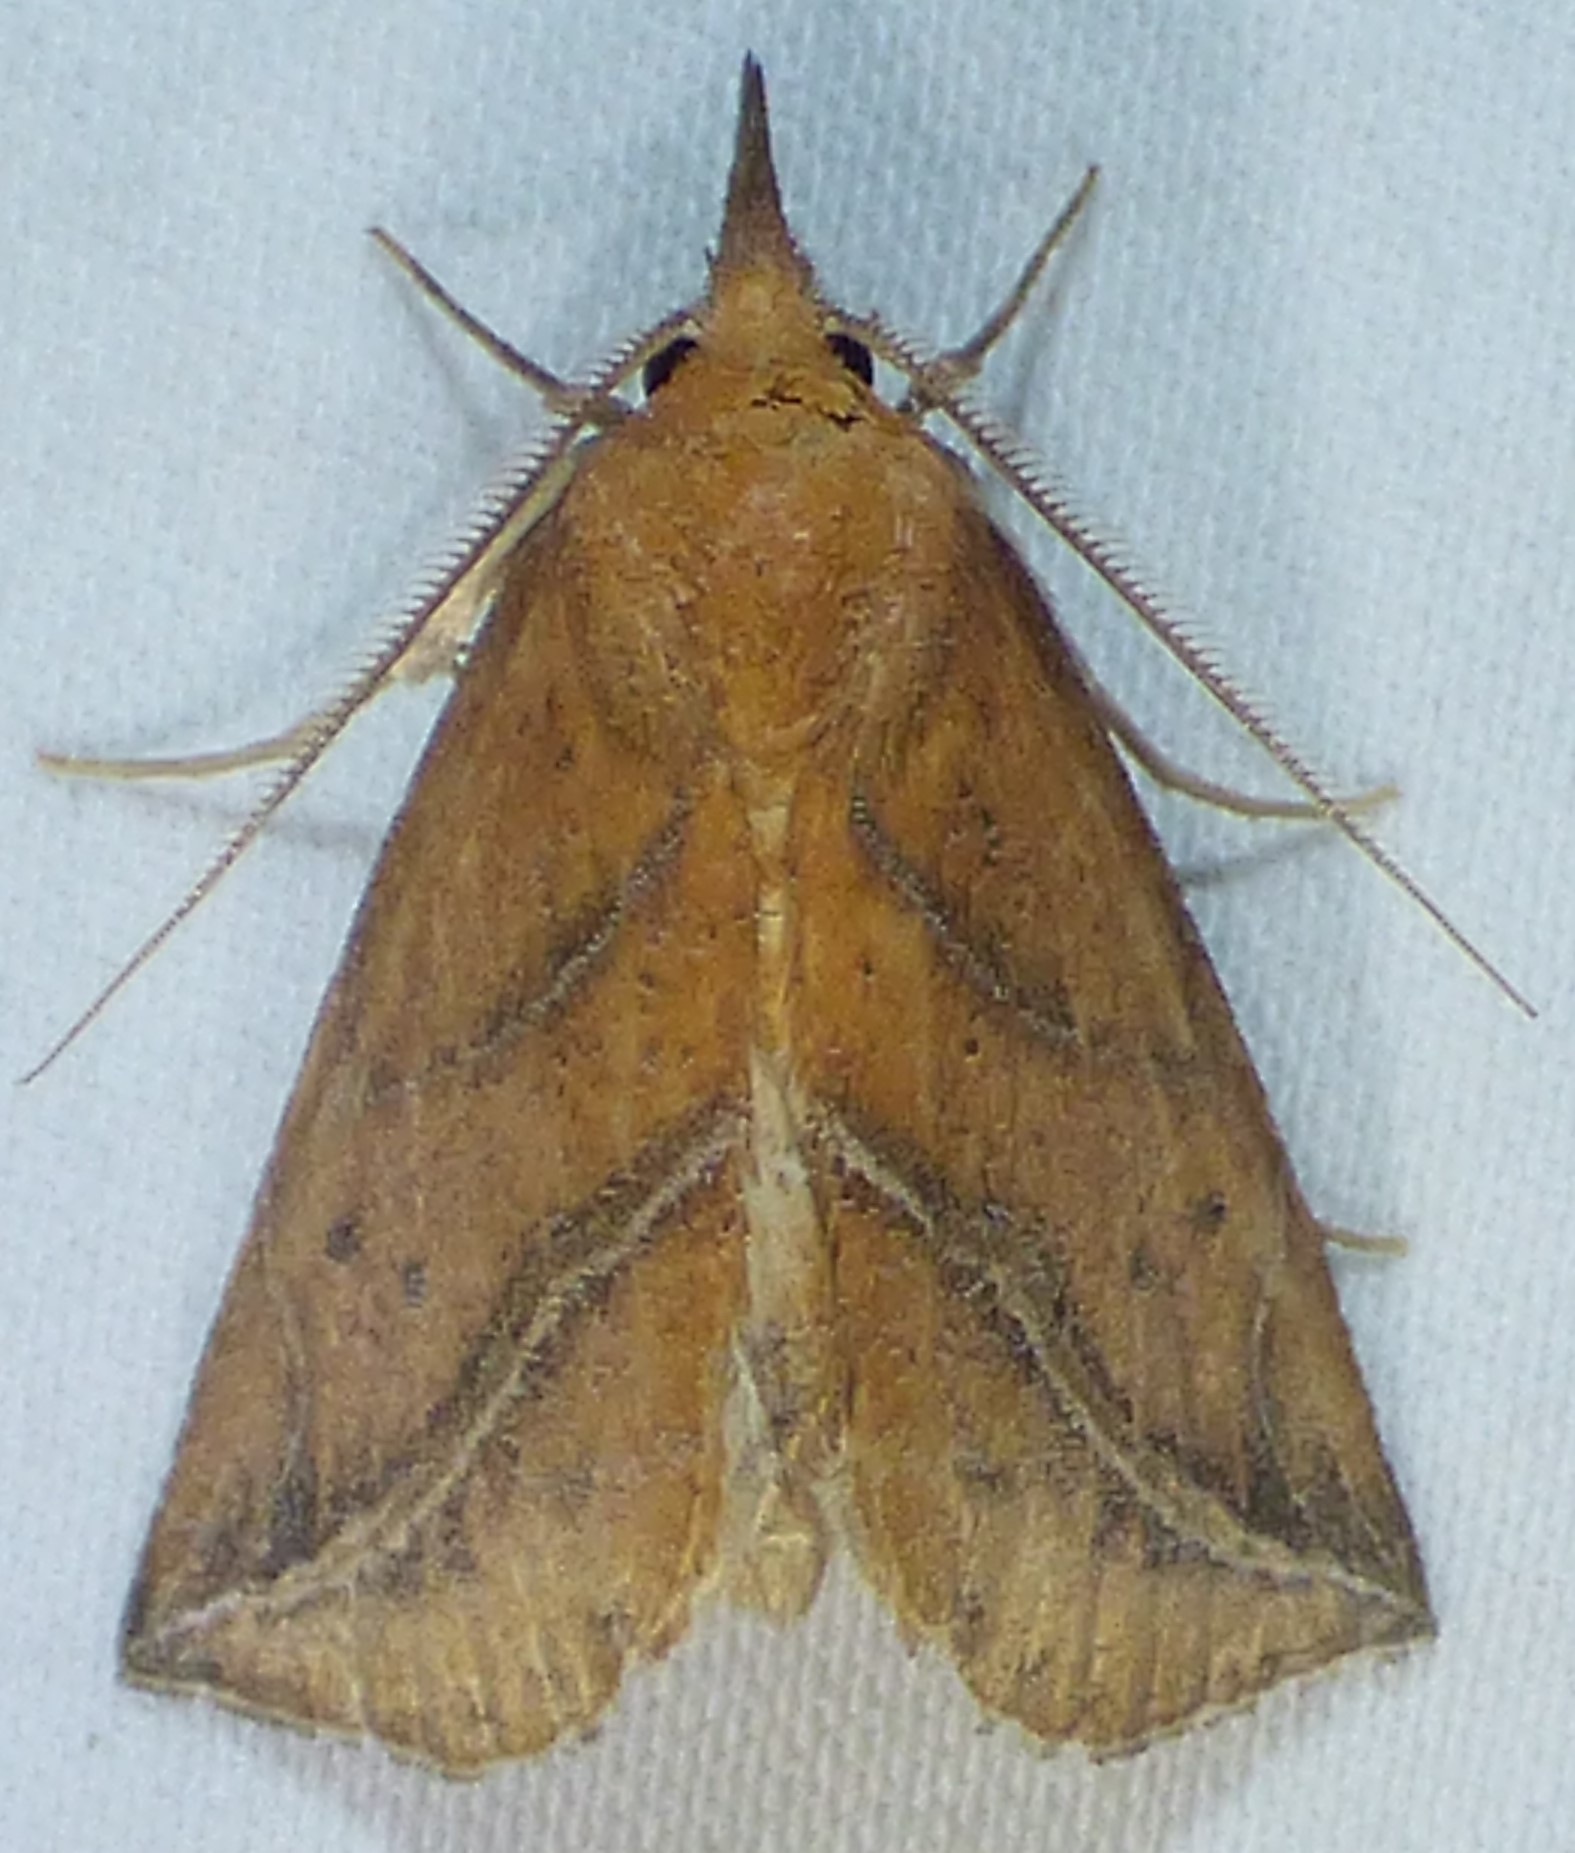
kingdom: Animalia
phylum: Arthropoda
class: Insecta
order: Lepidoptera
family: Erebidae
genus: Phyprosopus
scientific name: Phyprosopus callitrichoides
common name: Curved-lined owlet
